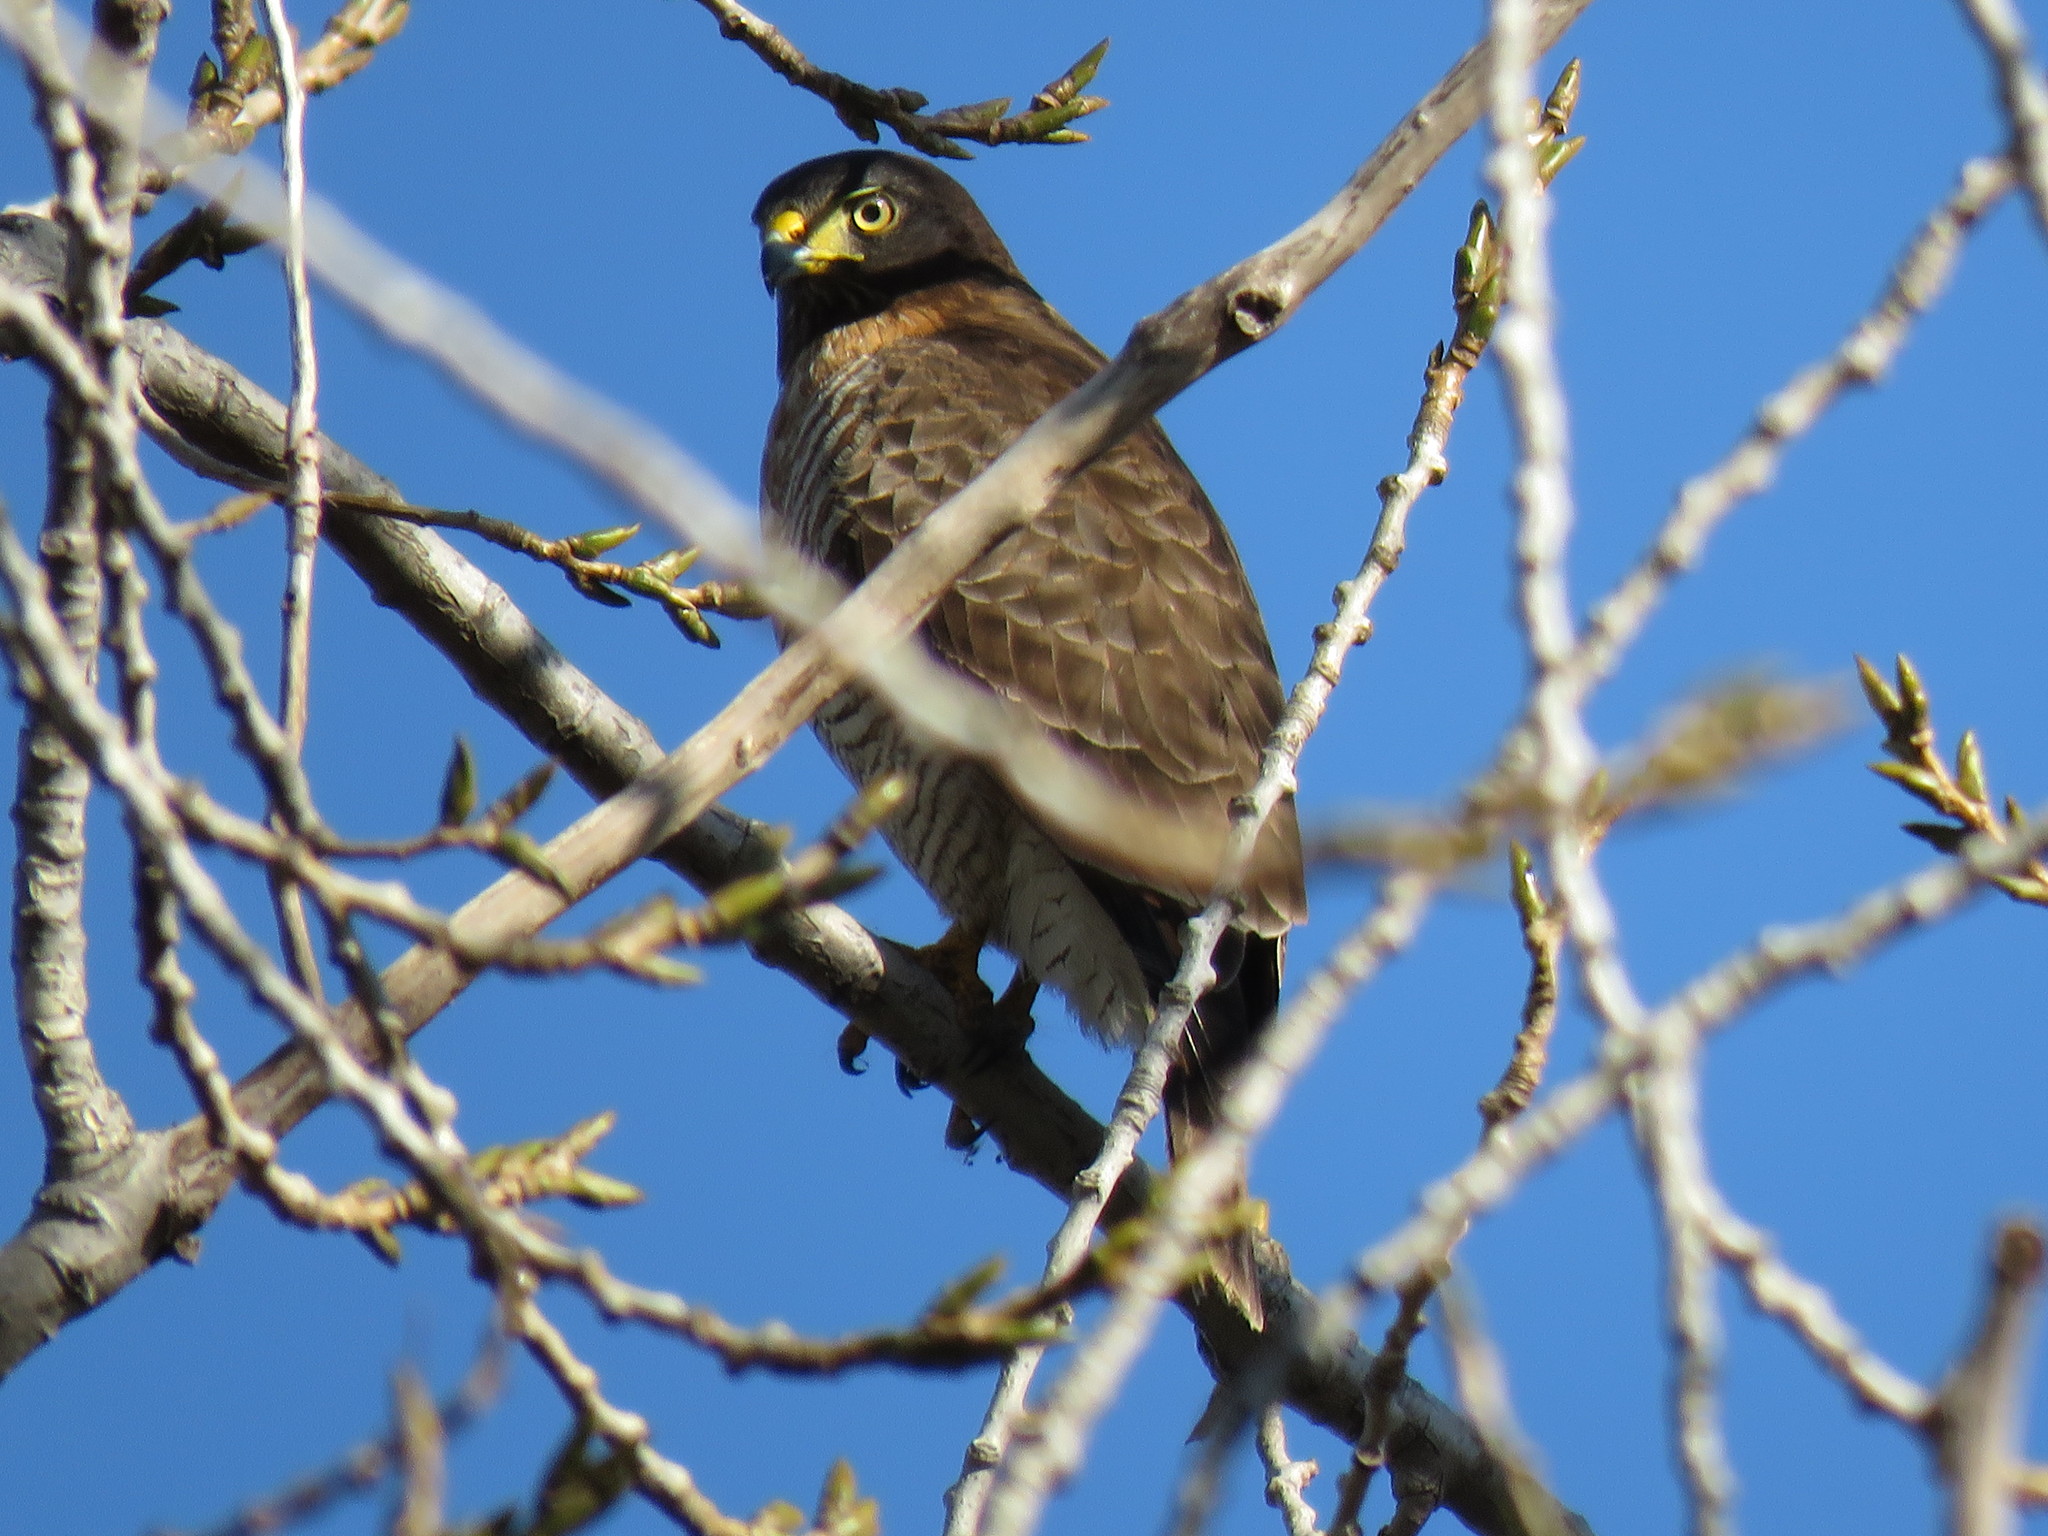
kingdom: Animalia
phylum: Chordata
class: Aves
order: Accipitriformes
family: Accipitridae
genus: Rupornis
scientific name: Rupornis magnirostris
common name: Roadside hawk
